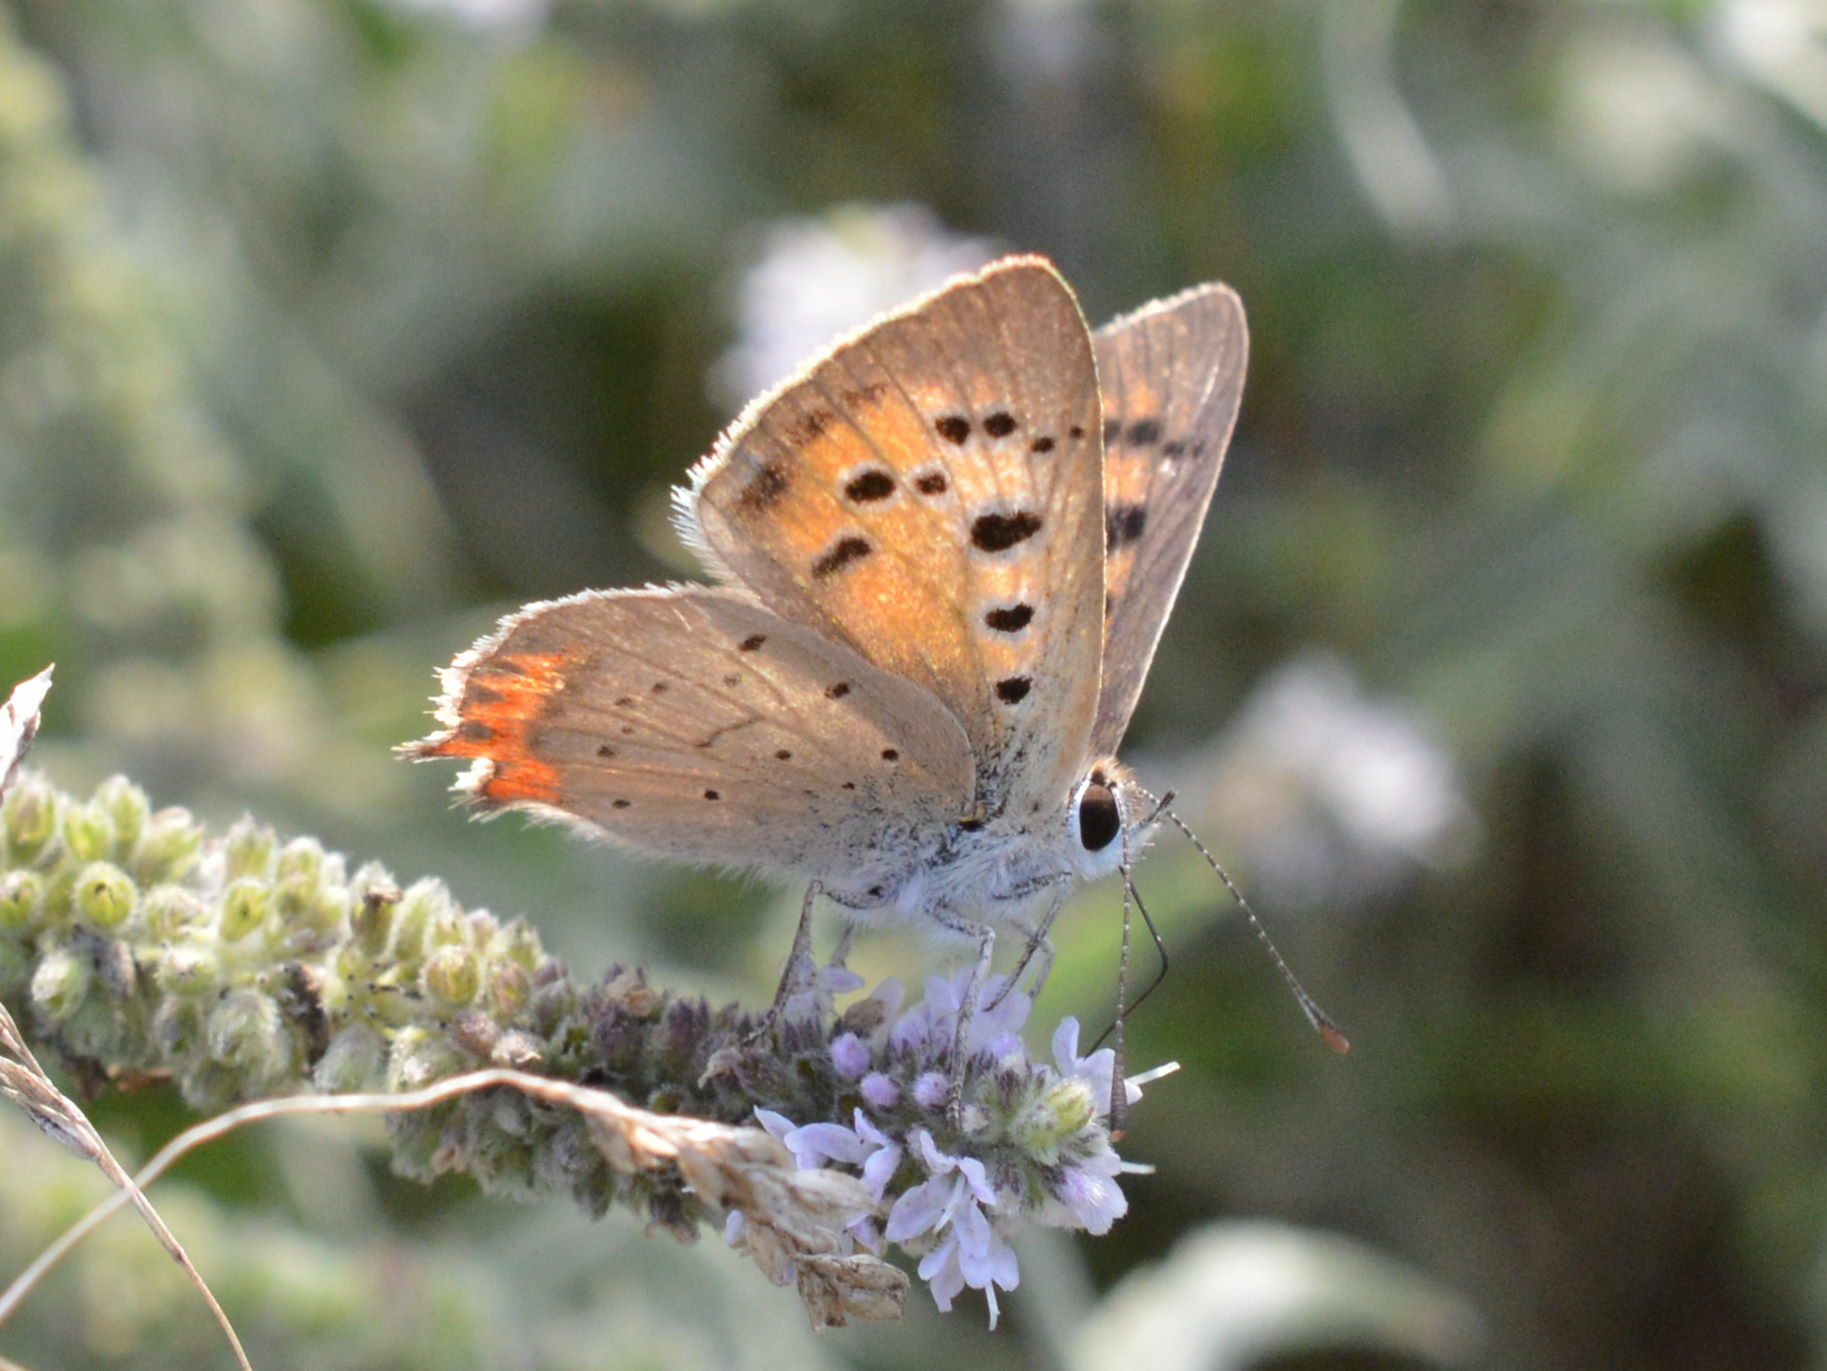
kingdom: Animalia
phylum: Arthropoda
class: Insecta
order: Lepidoptera
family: Lycaenidae
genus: Lycaena
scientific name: Lycaena phlaeas
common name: Small copper
